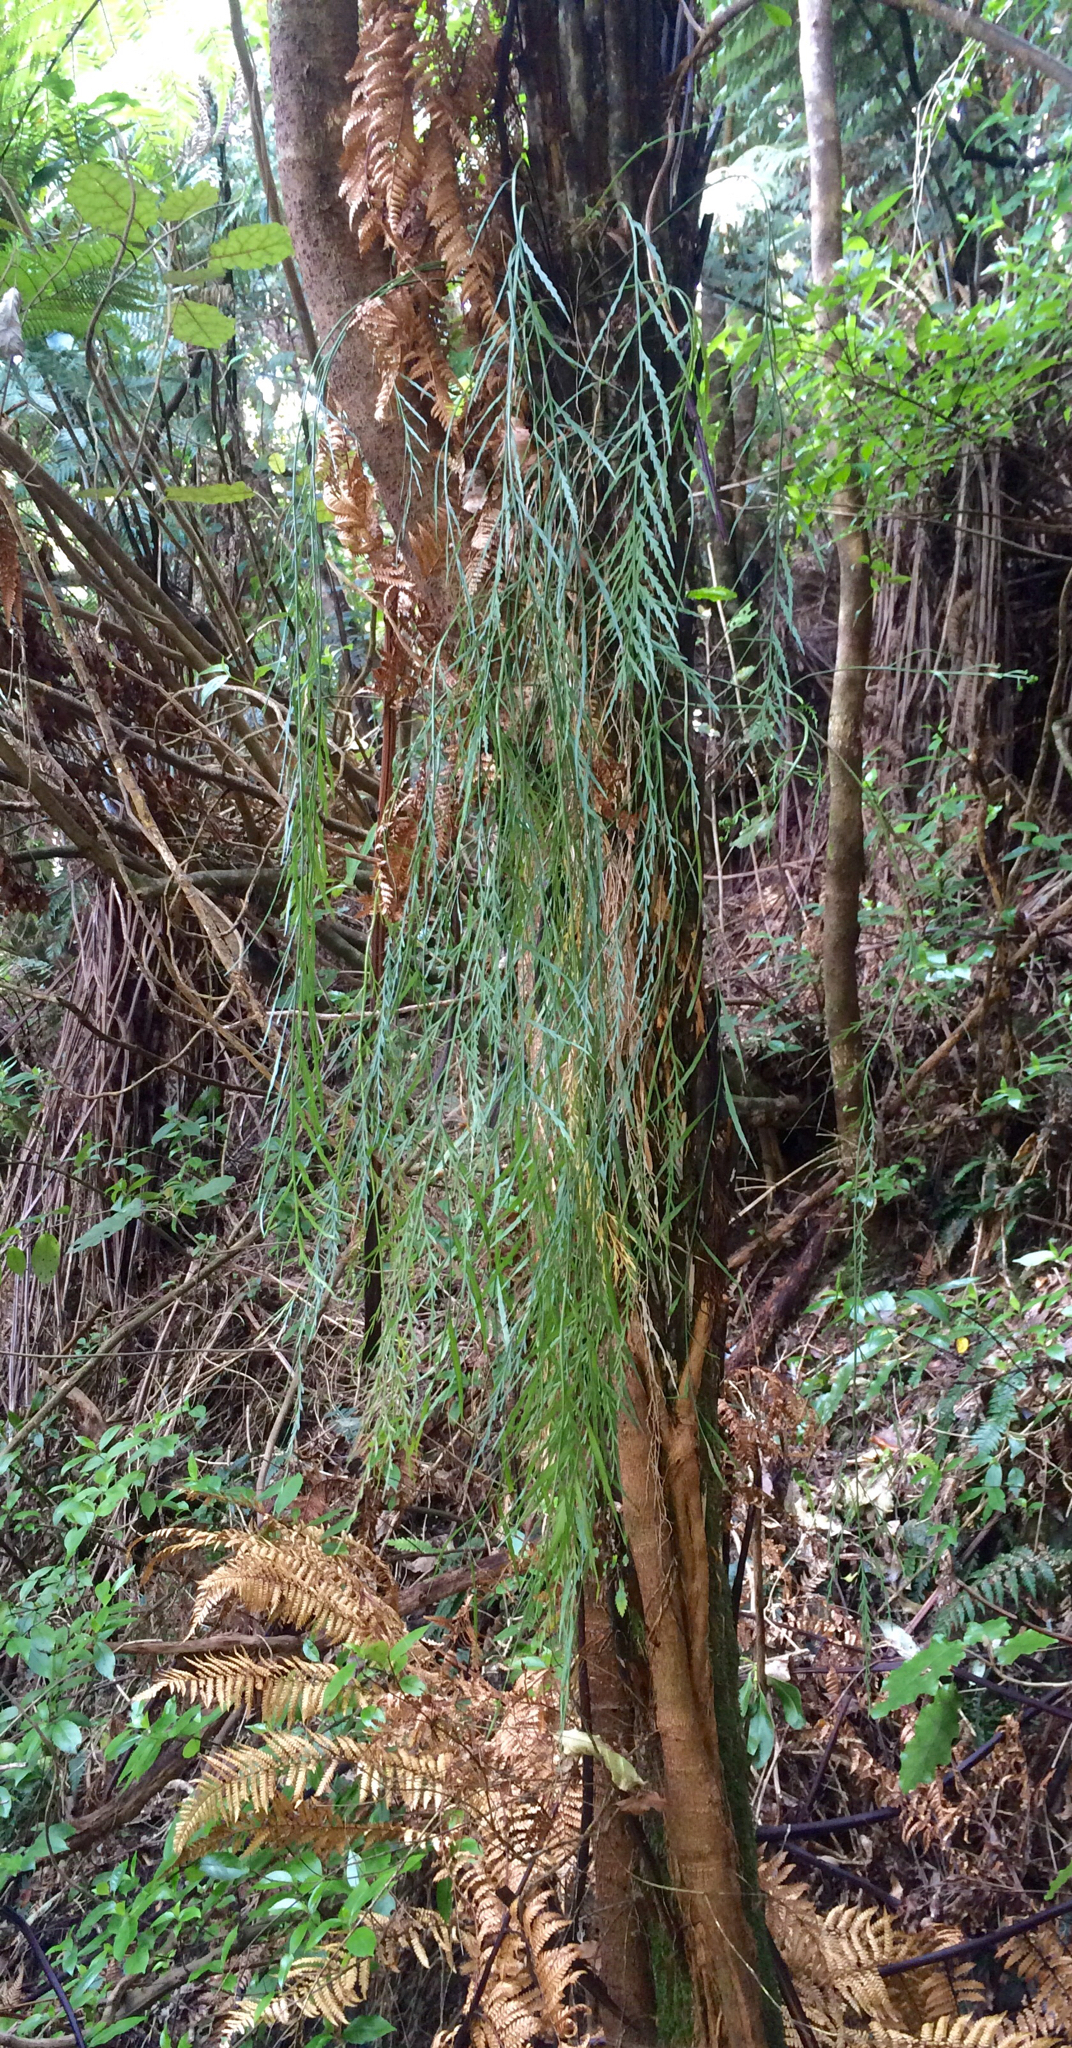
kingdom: Plantae
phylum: Tracheophyta
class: Polypodiopsida
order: Polypodiales
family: Aspleniaceae
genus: Asplenium
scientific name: Asplenium flaccidum
